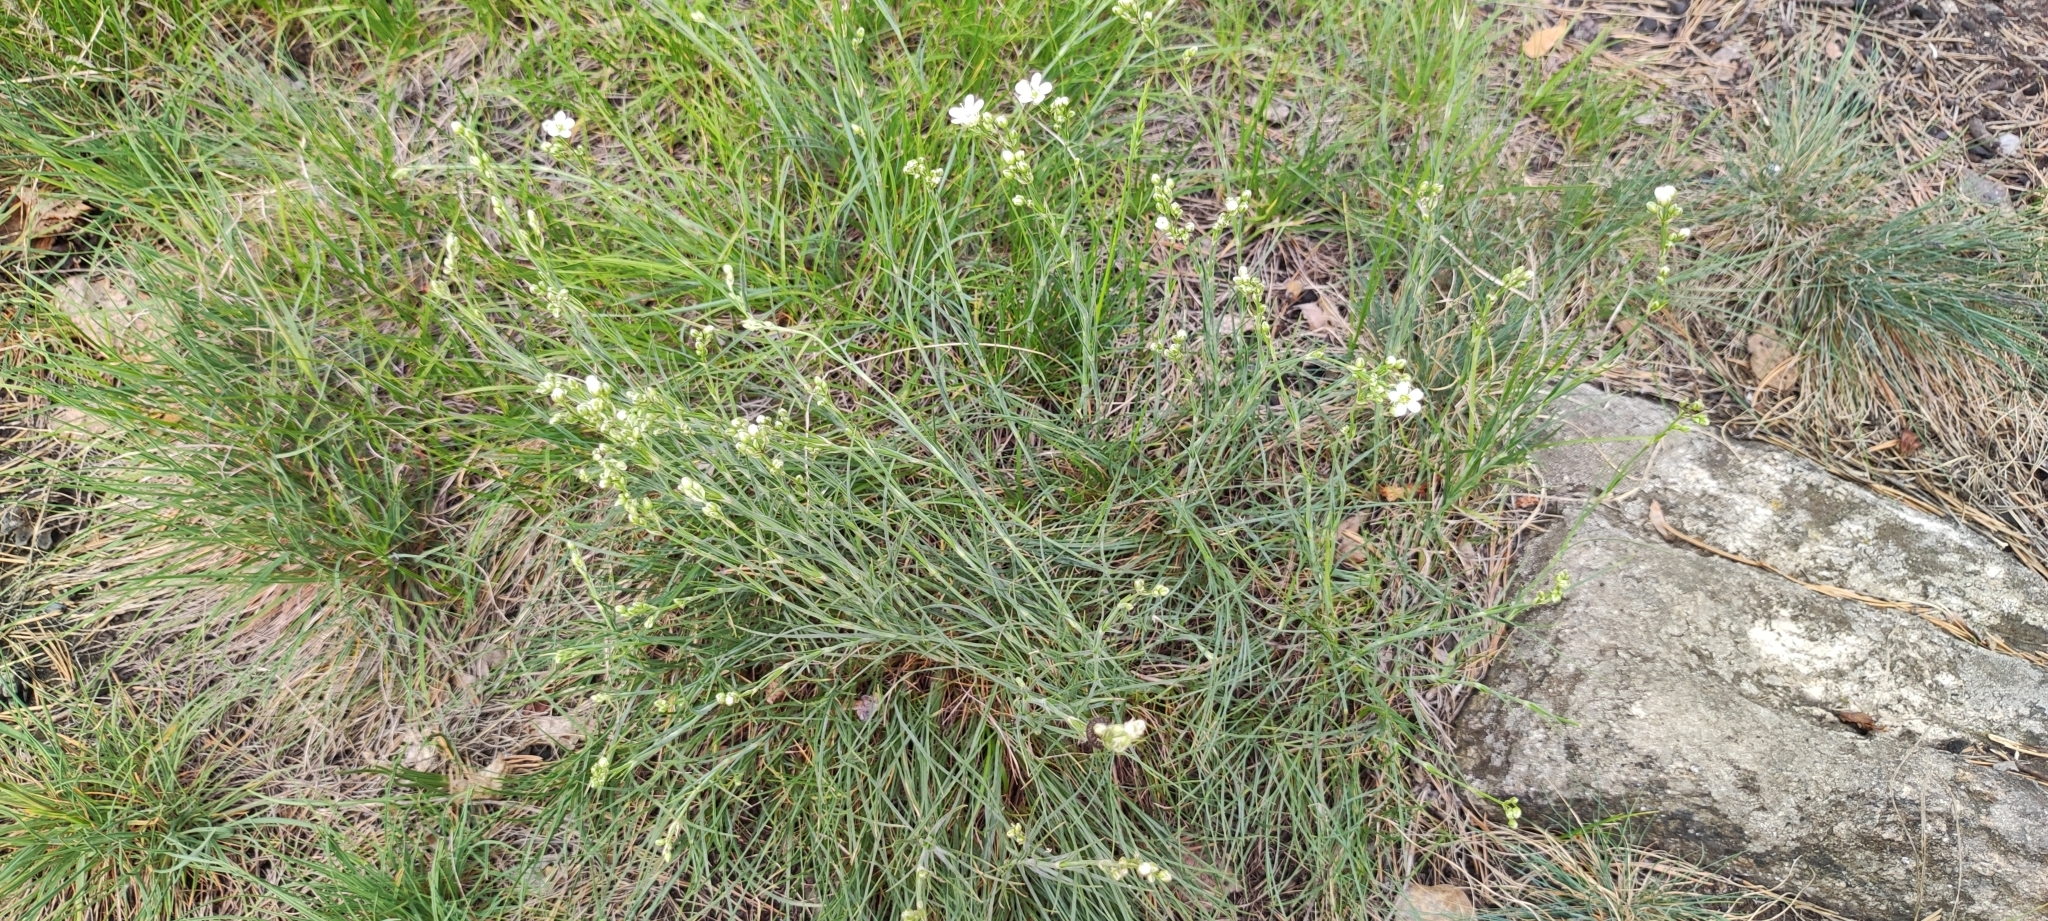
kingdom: Plantae
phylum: Tracheophyta
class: Magnoliopsida
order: Caryophyllales
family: Caryophyllaceae
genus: Eremogone
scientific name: Eremogone saxatilis
